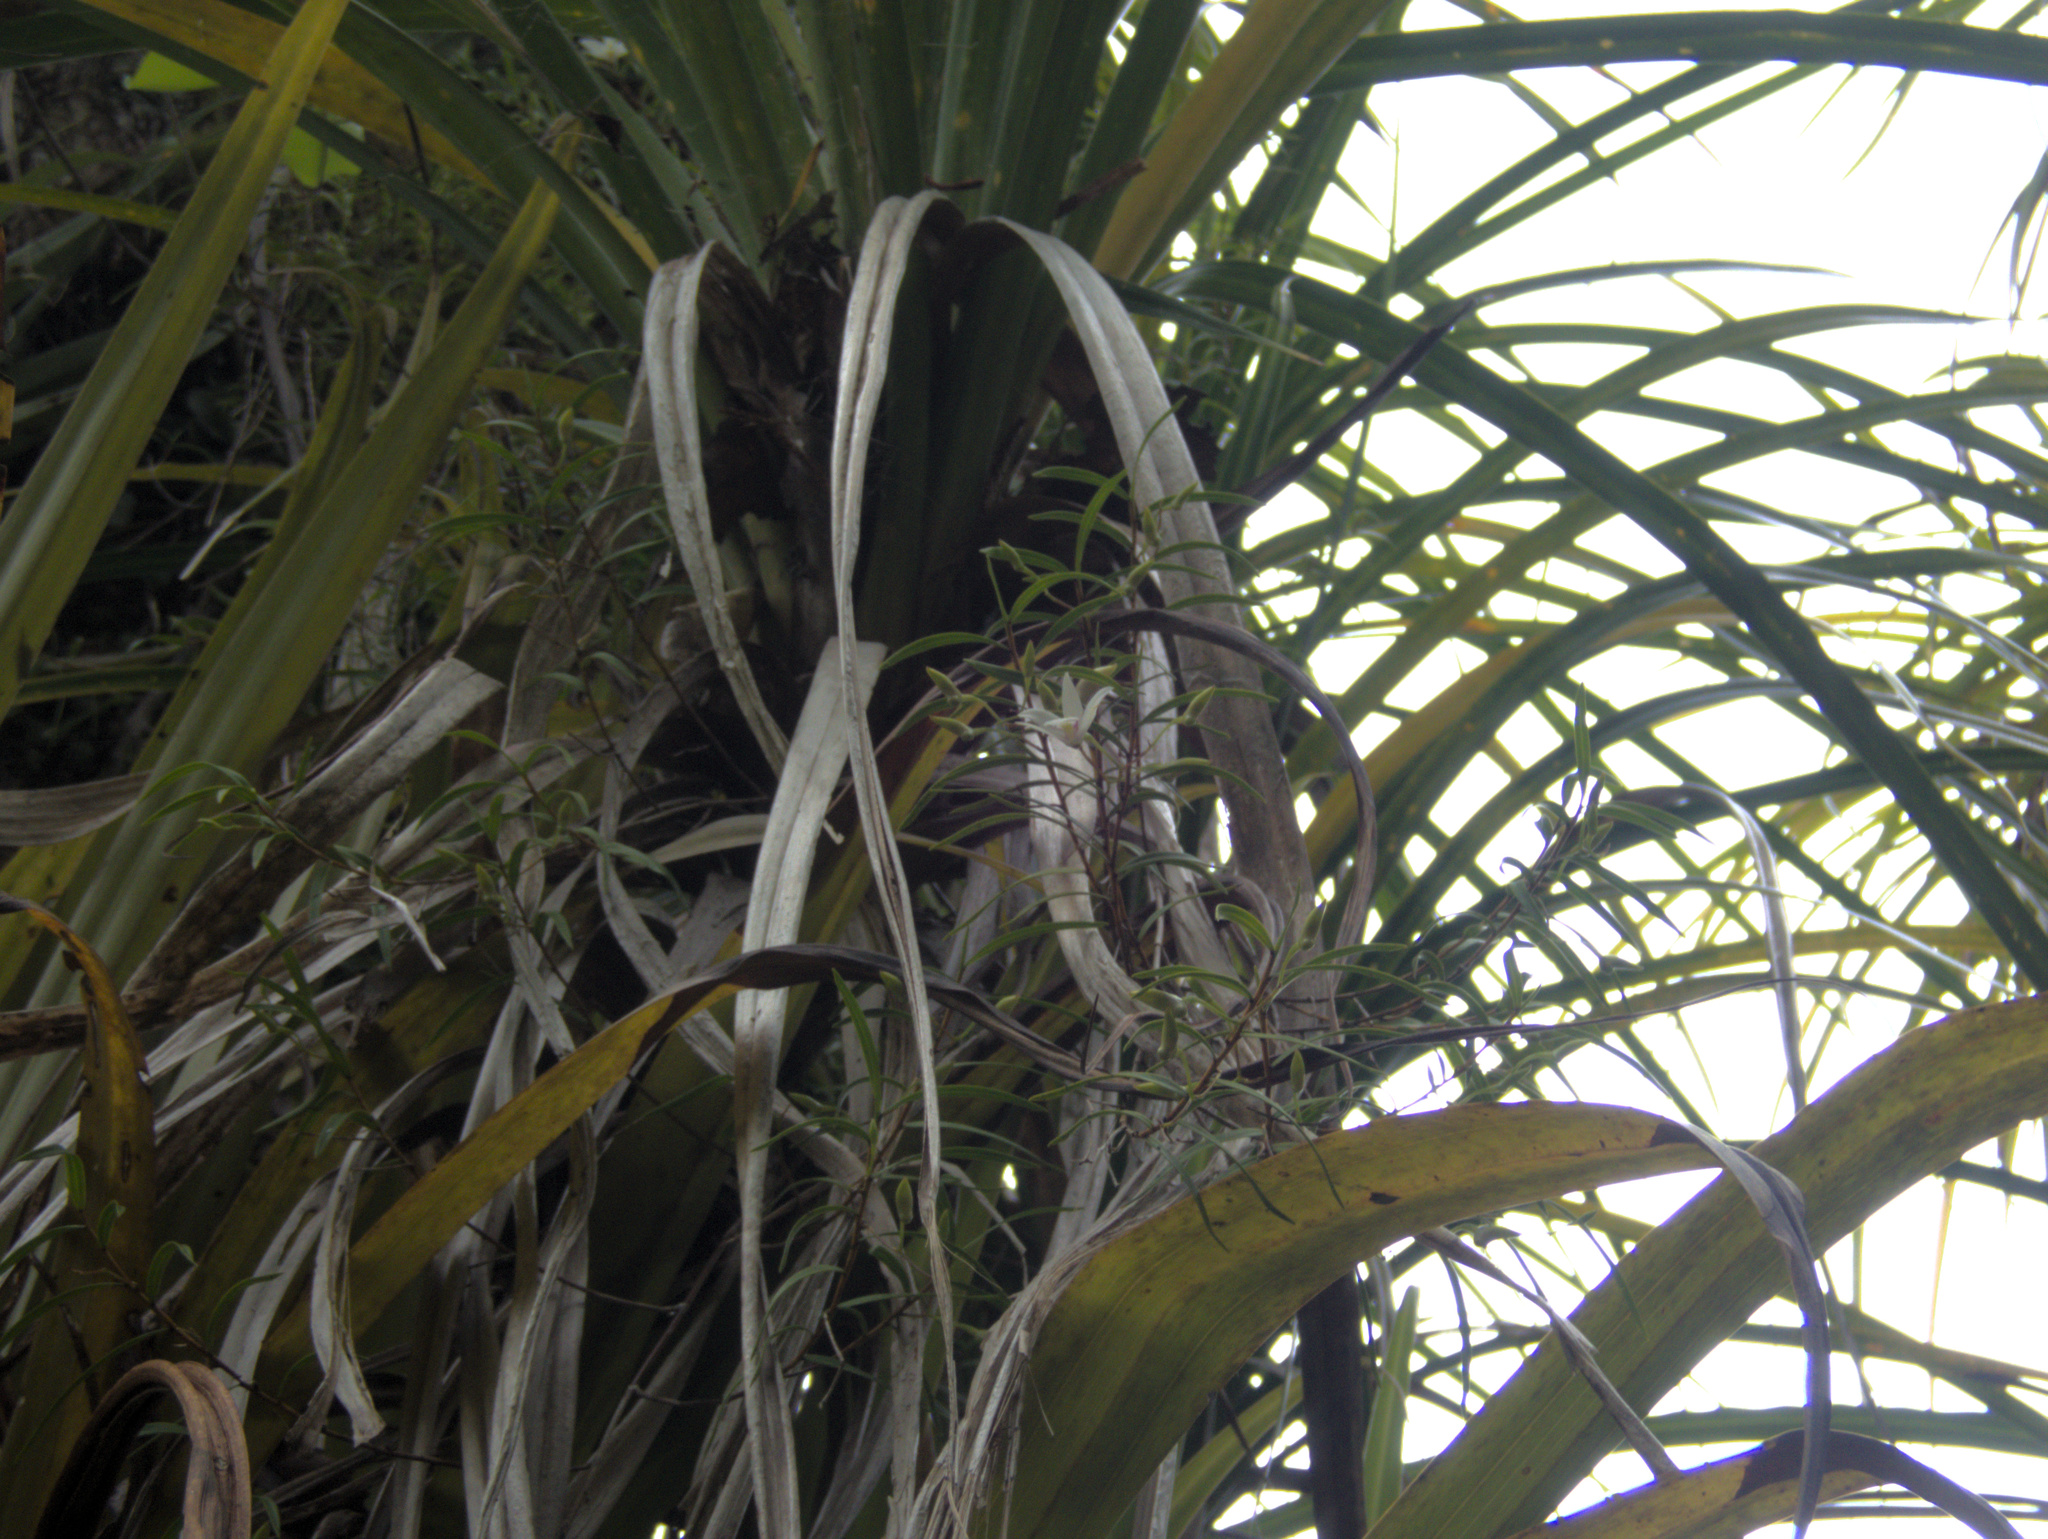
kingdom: Plantae
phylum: Tracheophyta
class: Liliopsida
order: Asparagales
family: Orchidaceae
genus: Dendrobium
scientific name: Dendrobium cunninghamii
